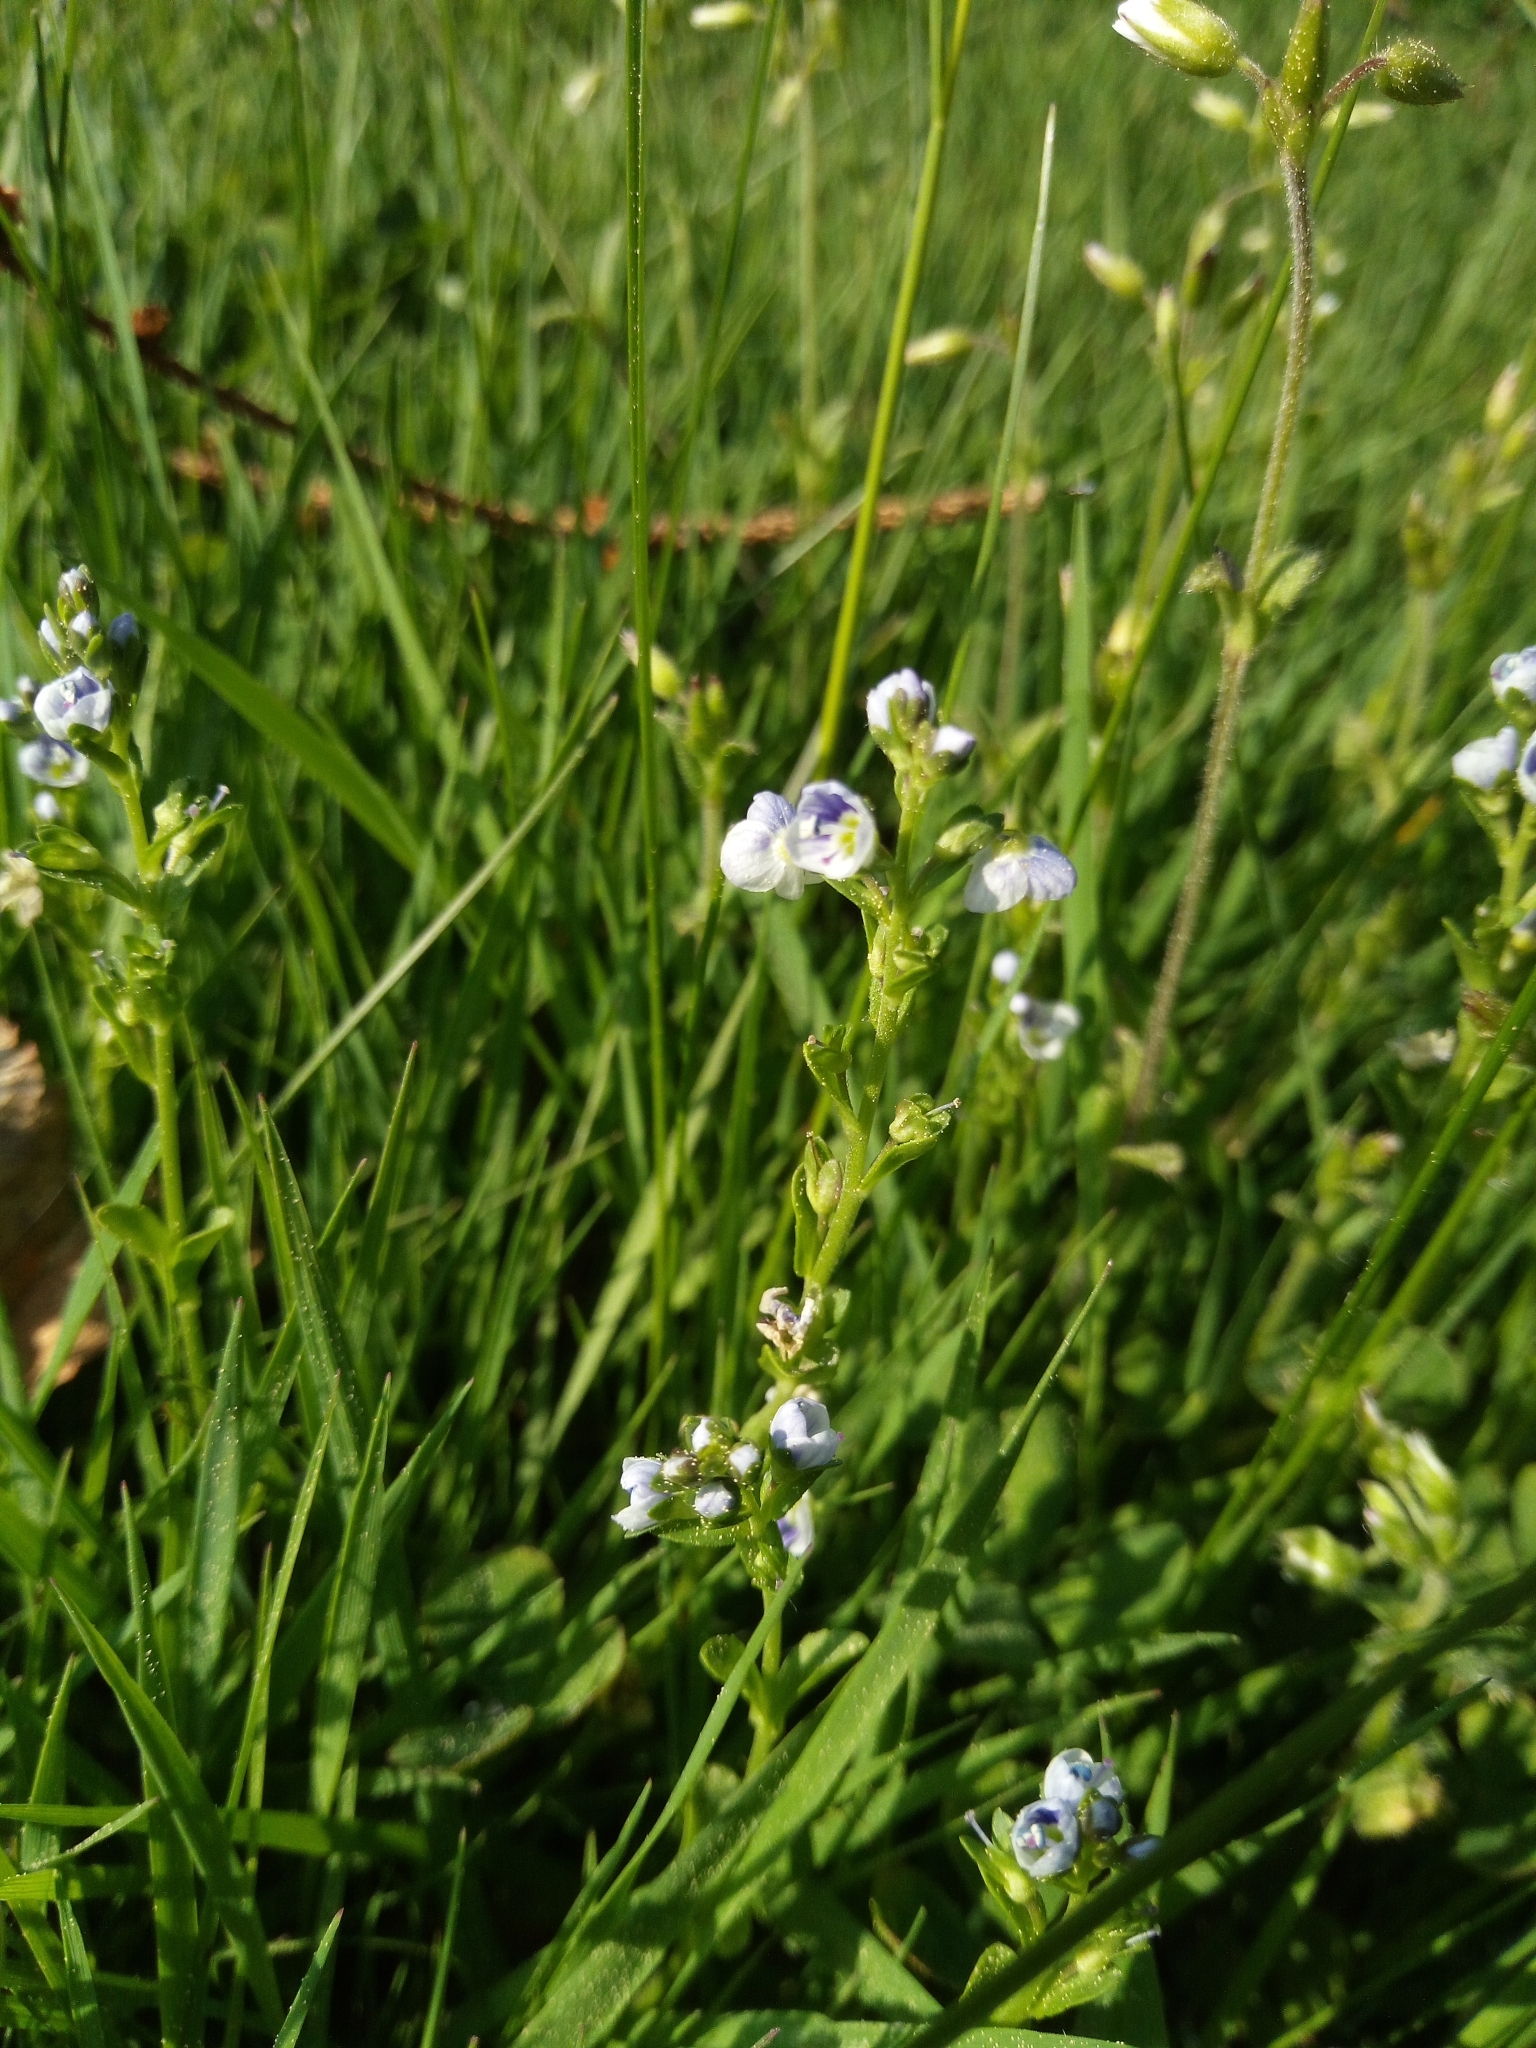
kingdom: Plantae
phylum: Tracheophyta
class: Magnoliopsida
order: Lamiales
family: Plantaginaceae
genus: Veronica
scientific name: Veronica serpyllifolia
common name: Thyme-leaved speedwell
